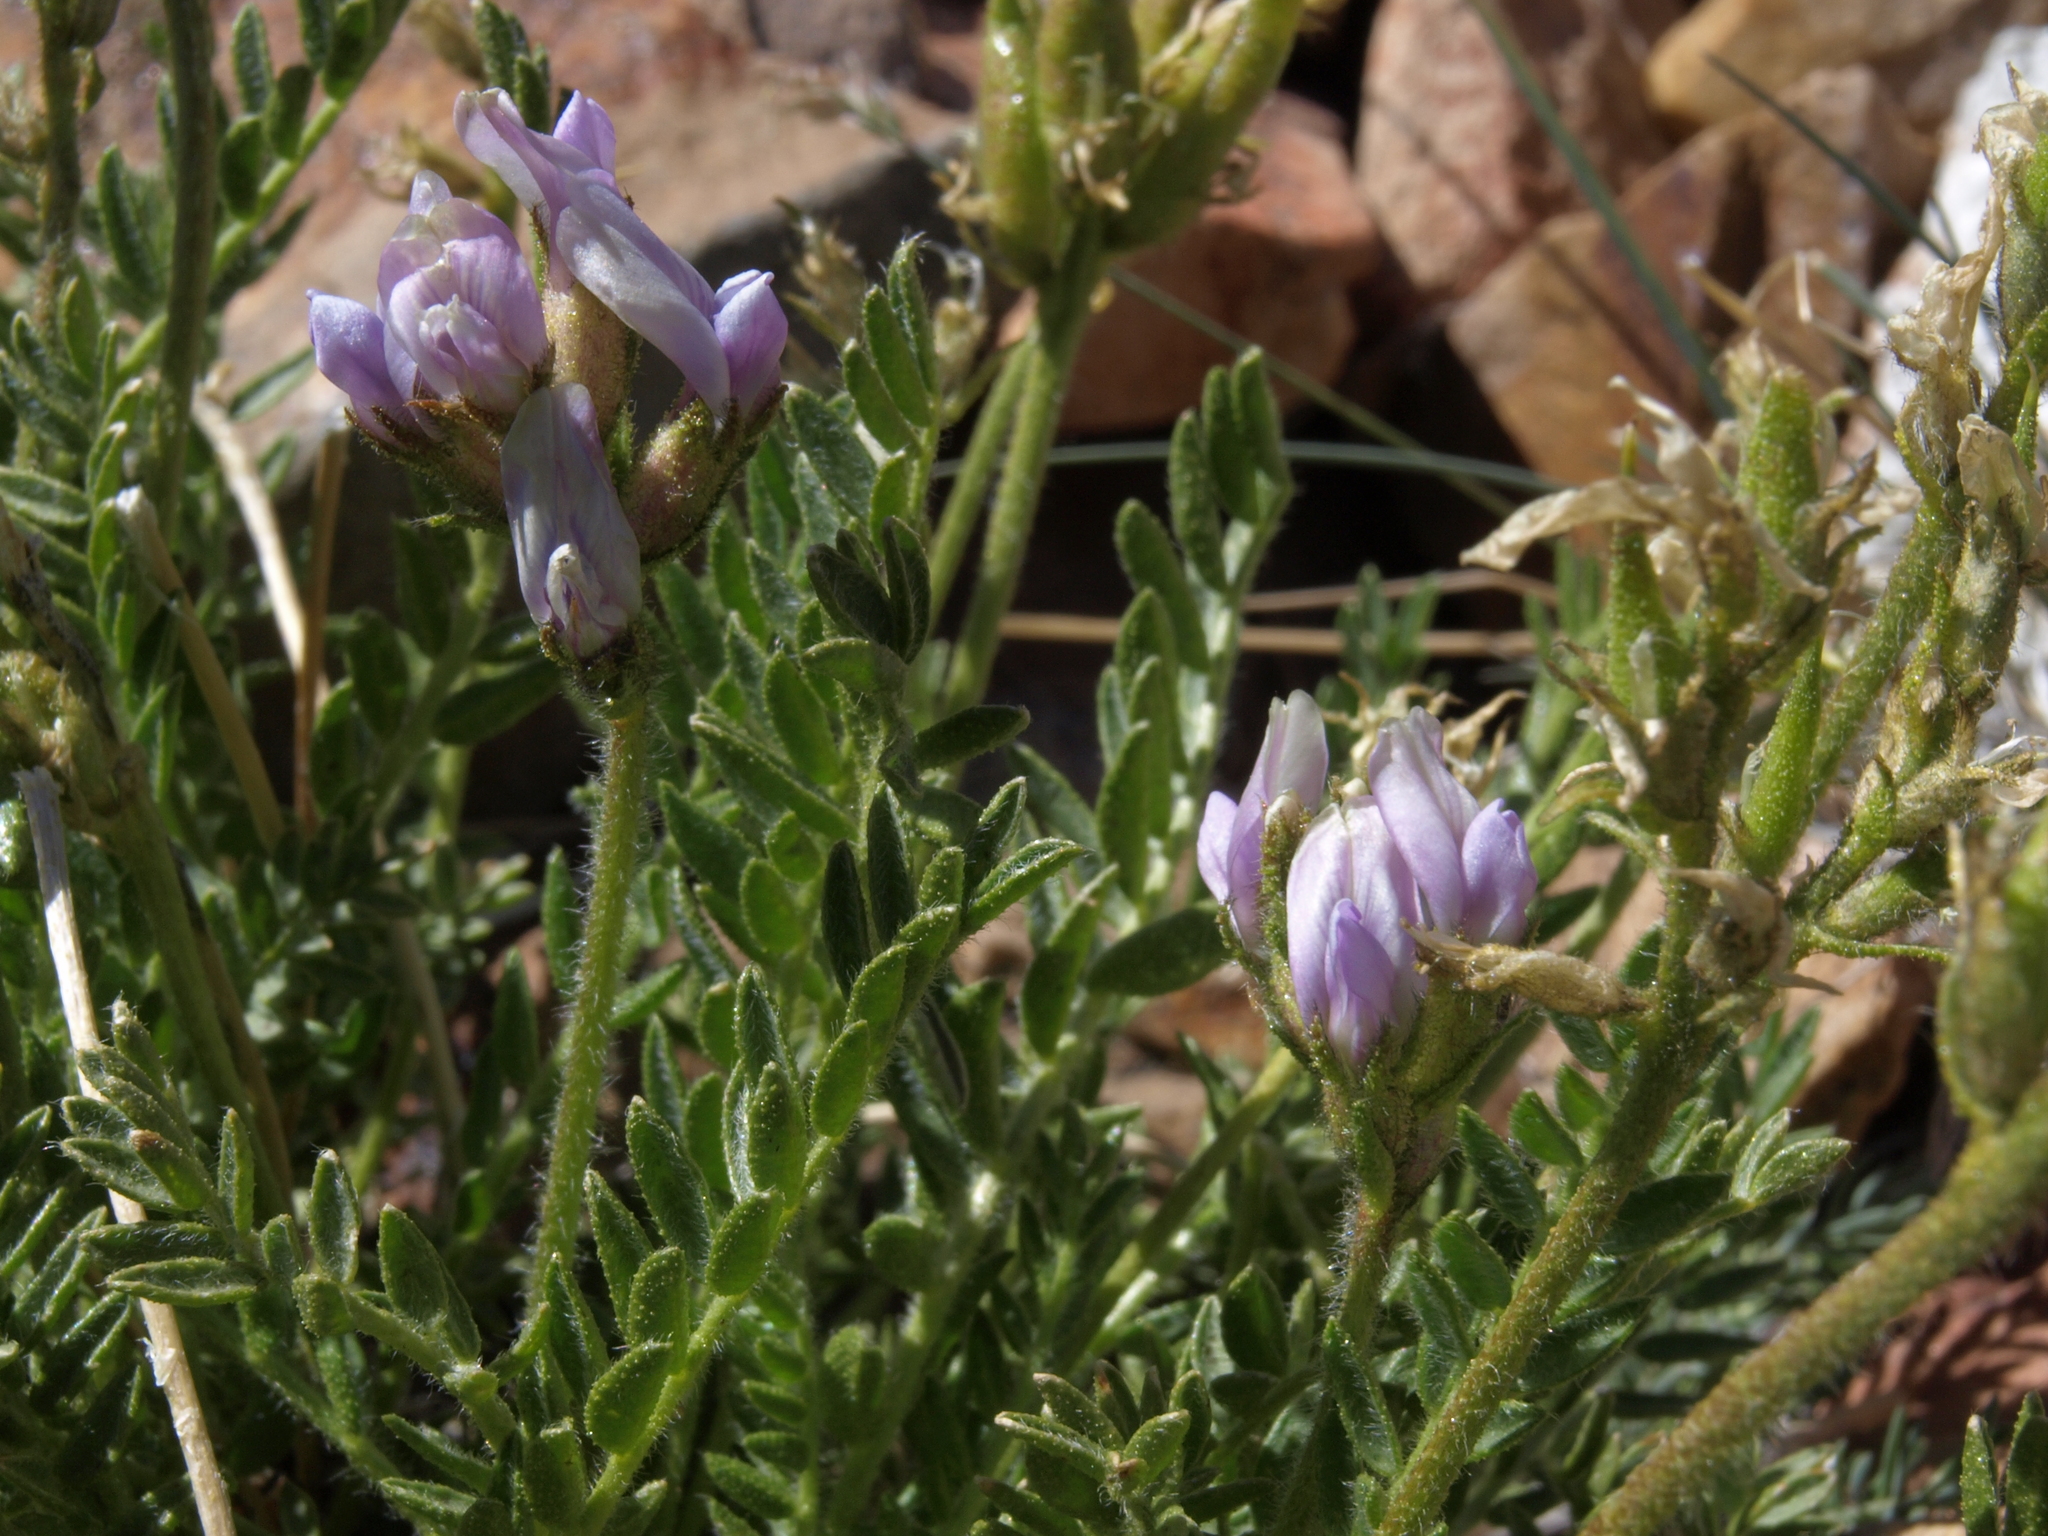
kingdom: Plantae
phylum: Tracheophyta
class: Magnoliopsida
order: Fabales
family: Fabaceae
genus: Oxytropis
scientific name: Oxytropis borealis
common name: Boreal locoweed
